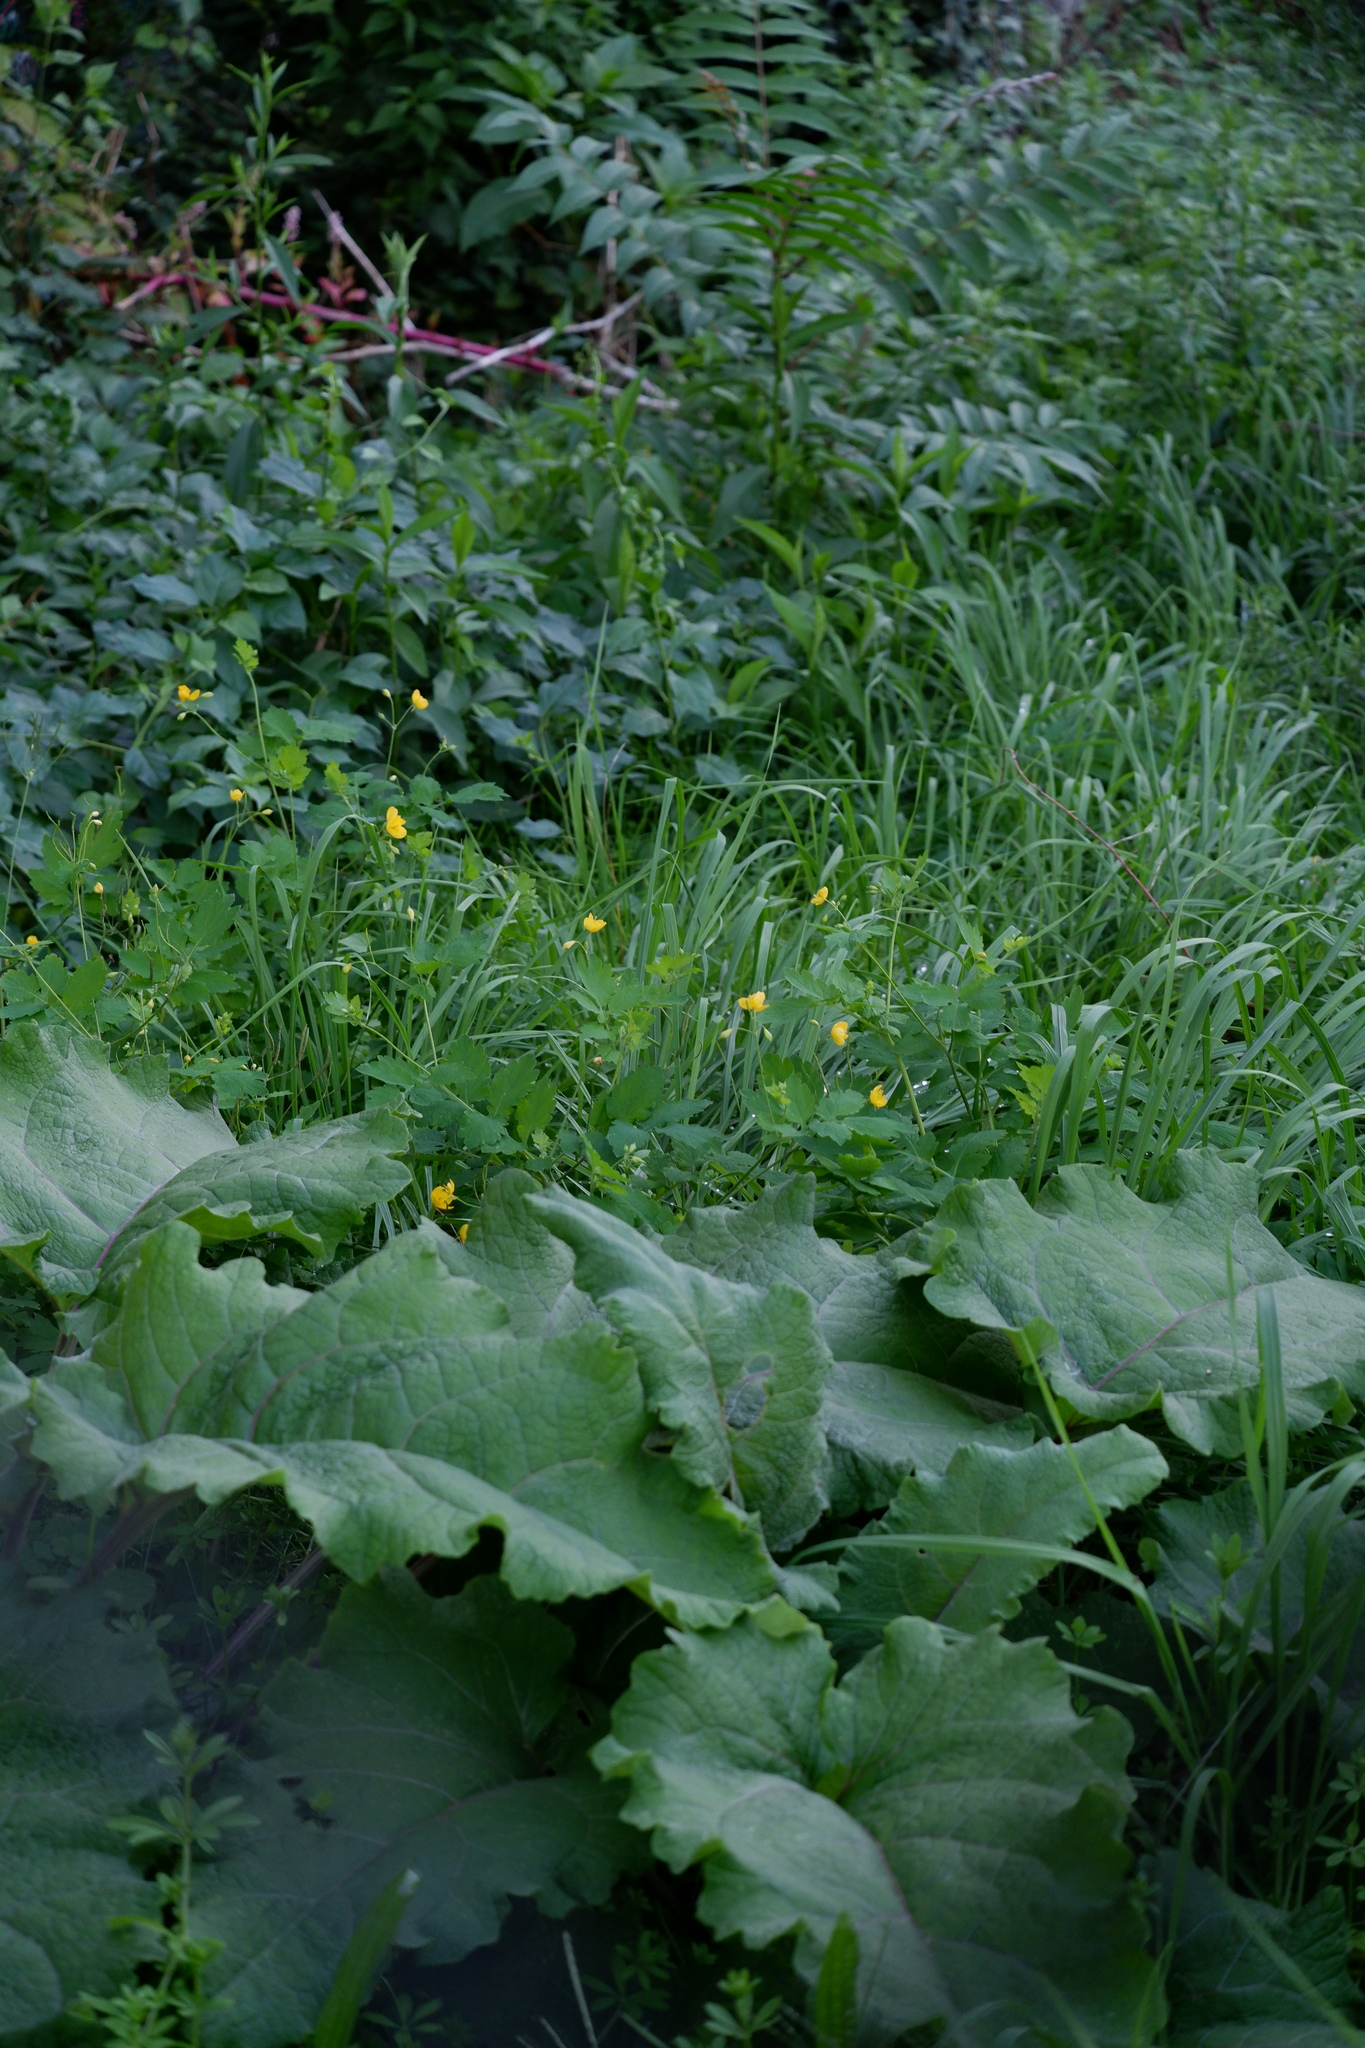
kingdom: Plantae
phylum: Tracheophyta
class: Magnoliopsida
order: Ranunculales
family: Papaveraceae
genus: Chelidonium
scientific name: Chelidonium majus
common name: Greater celandine
